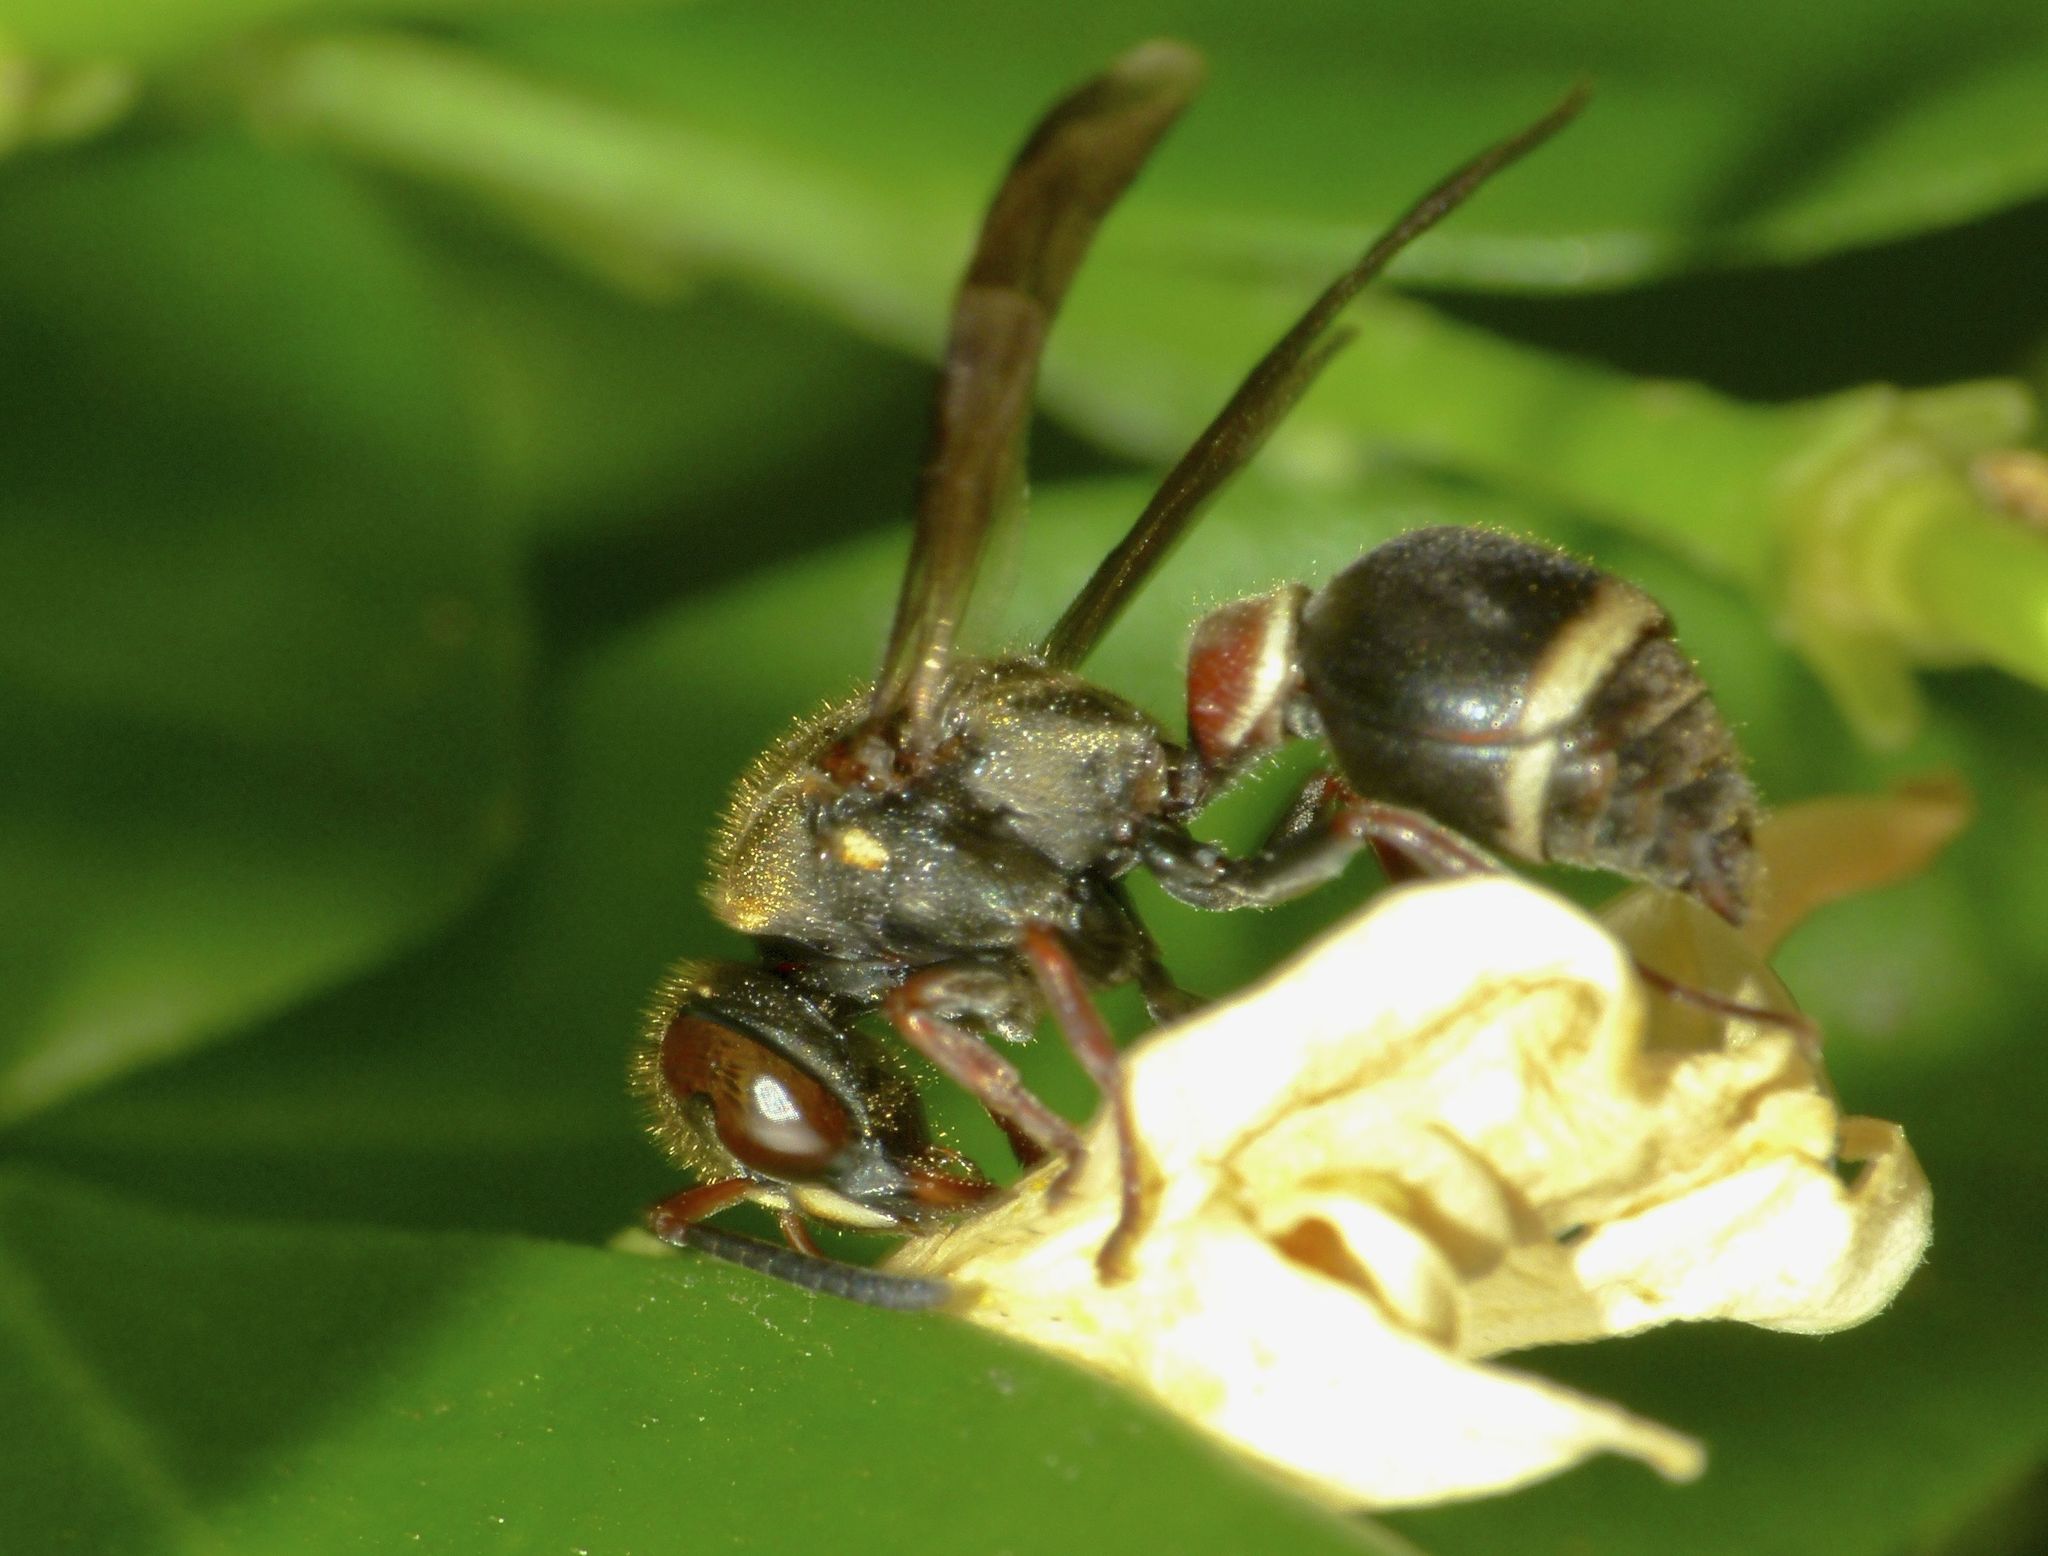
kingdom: Animalia
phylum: Arthropoda
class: Insecta
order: Hymenoptera
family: Vespidae
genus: Ropalidia
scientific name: Ropalidia plebeiana
